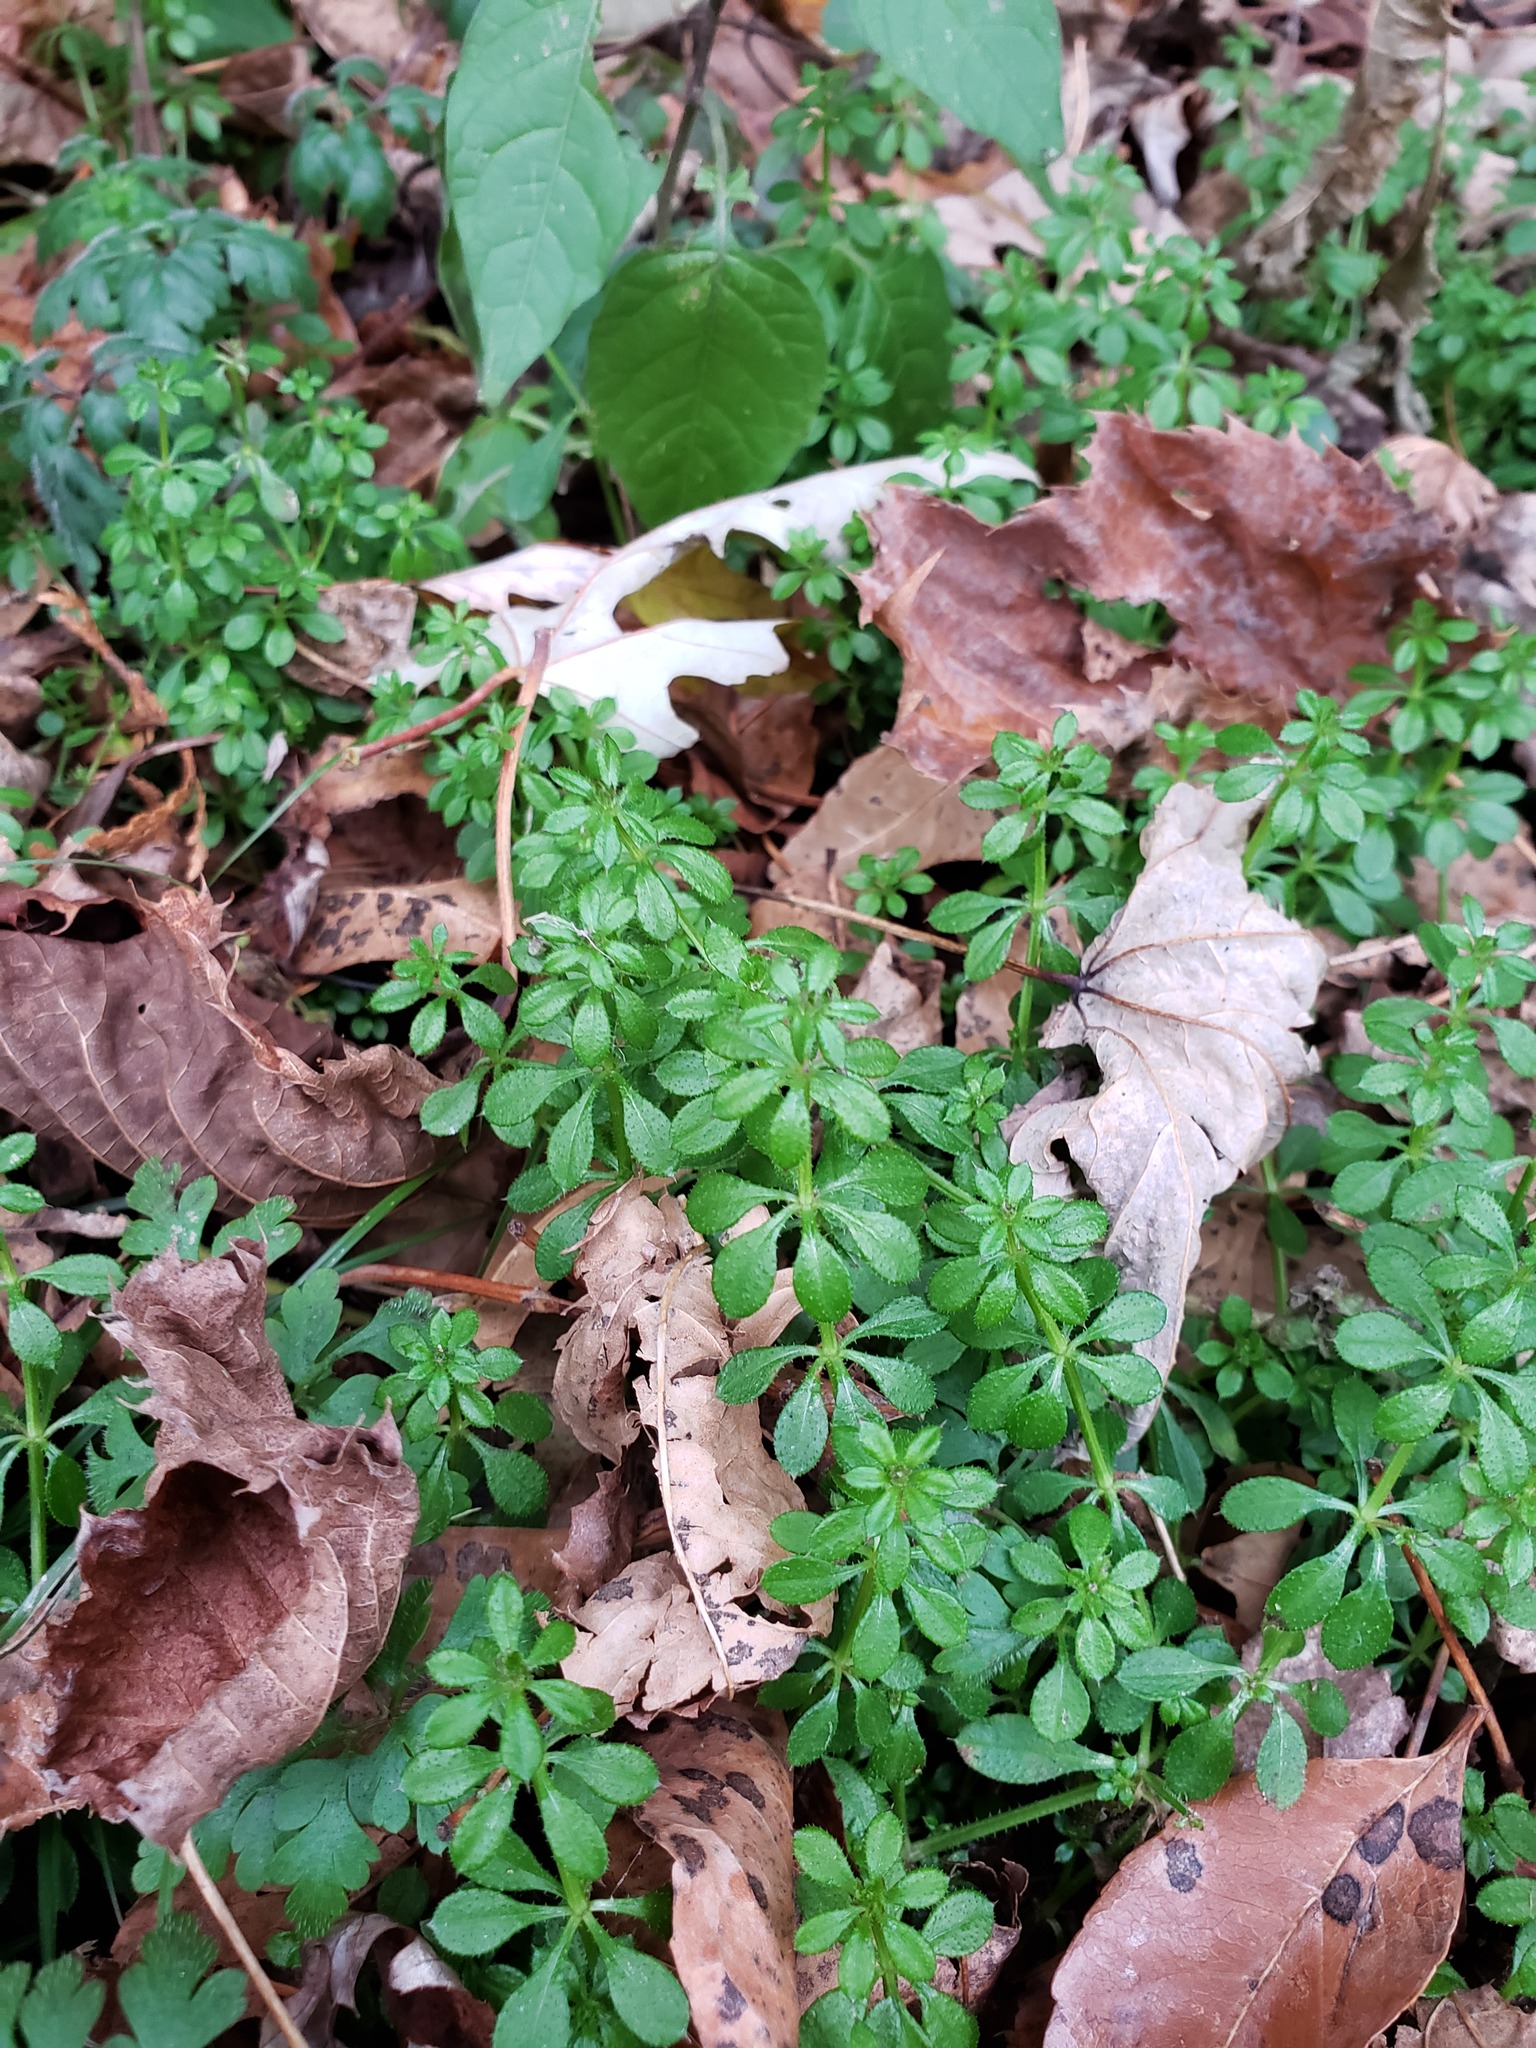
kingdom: Plantae
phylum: Tracheophyta
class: Magnoliopsida
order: Gentianales
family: Rubiaceae
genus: Galium
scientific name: Galium aparine
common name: Cleavers
